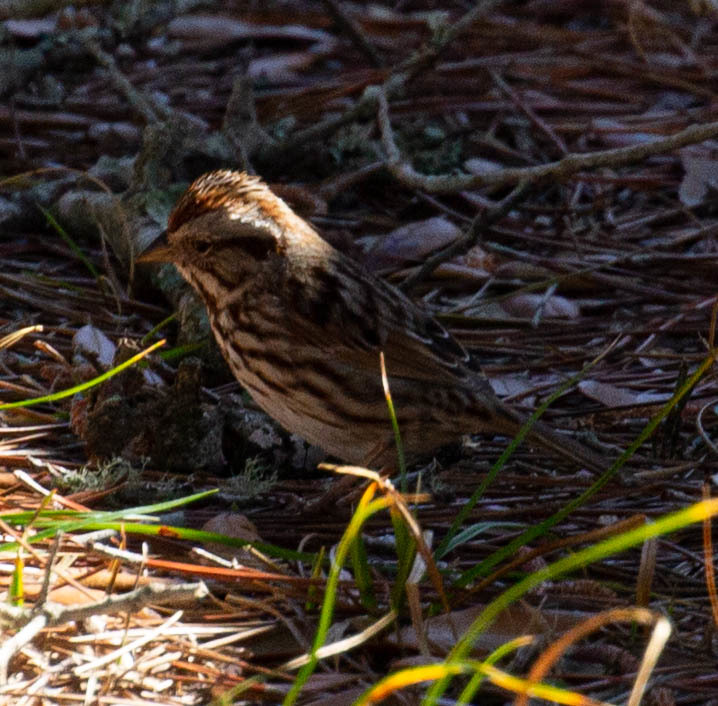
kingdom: Animalia
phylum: Chordata
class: Aves
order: Passeriformes
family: Passerellidae
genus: Melospiza
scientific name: Melospiza melodia
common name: Song sparrow
